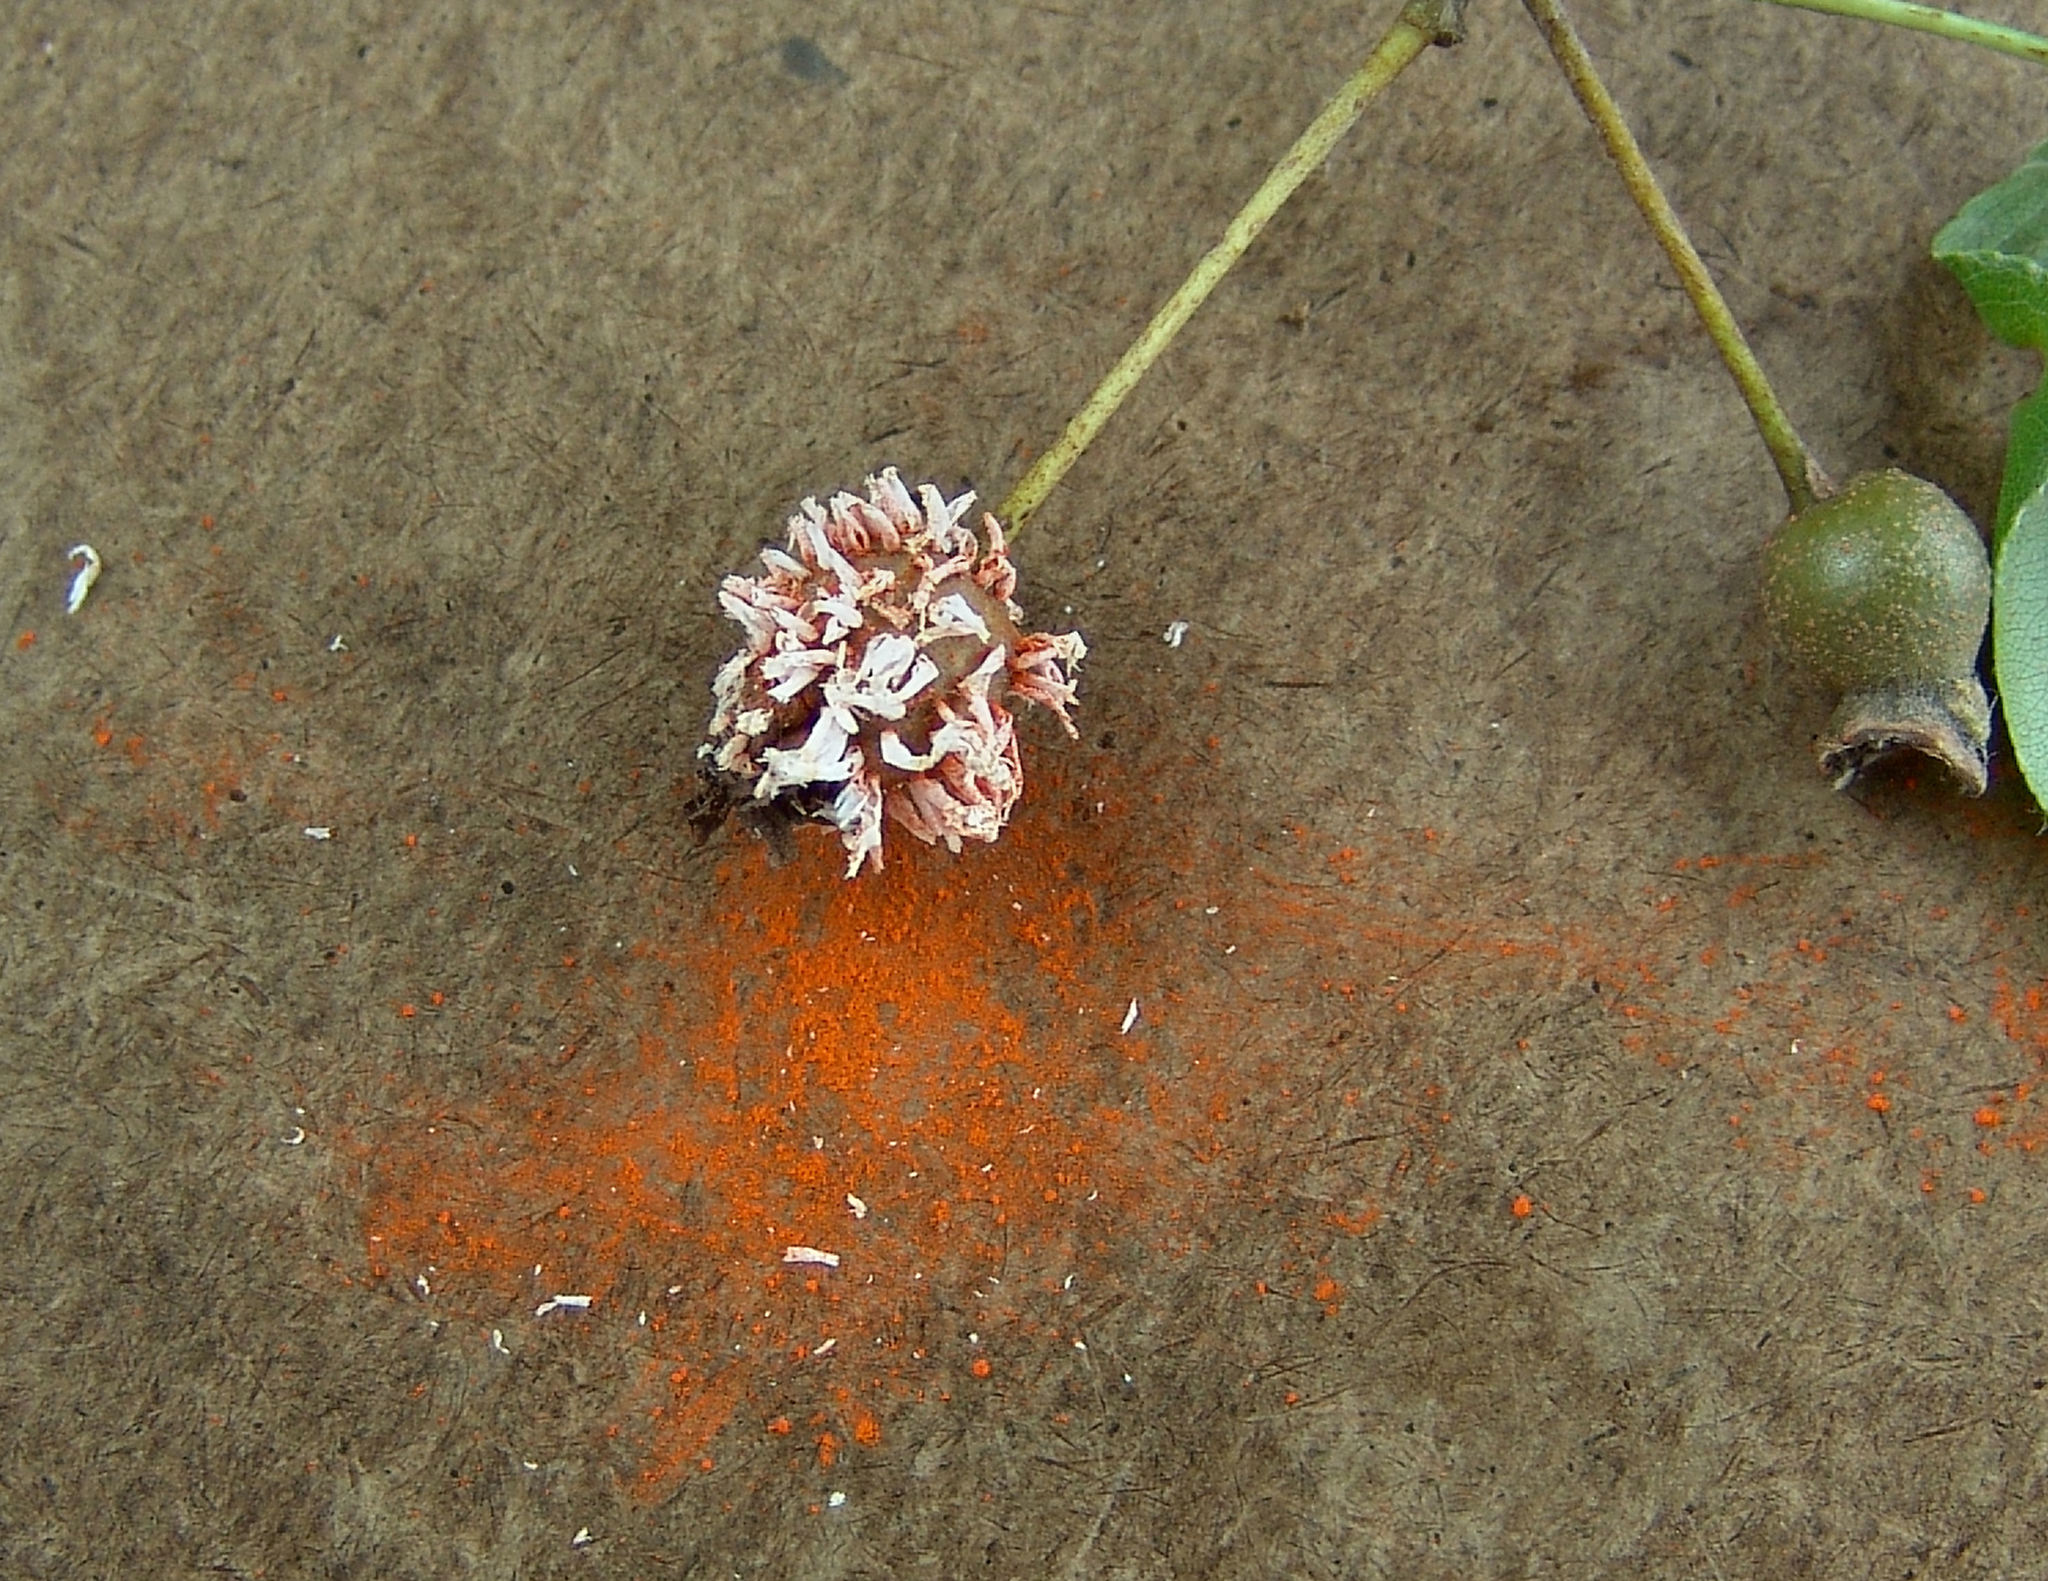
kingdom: Fungi
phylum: Basidiomycota
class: Pucciniomycetes
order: Pucciniales
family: Gymnosporangiaceae
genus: Gymnosporangium
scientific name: Gymnosporangium clavipes
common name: Quince rust
